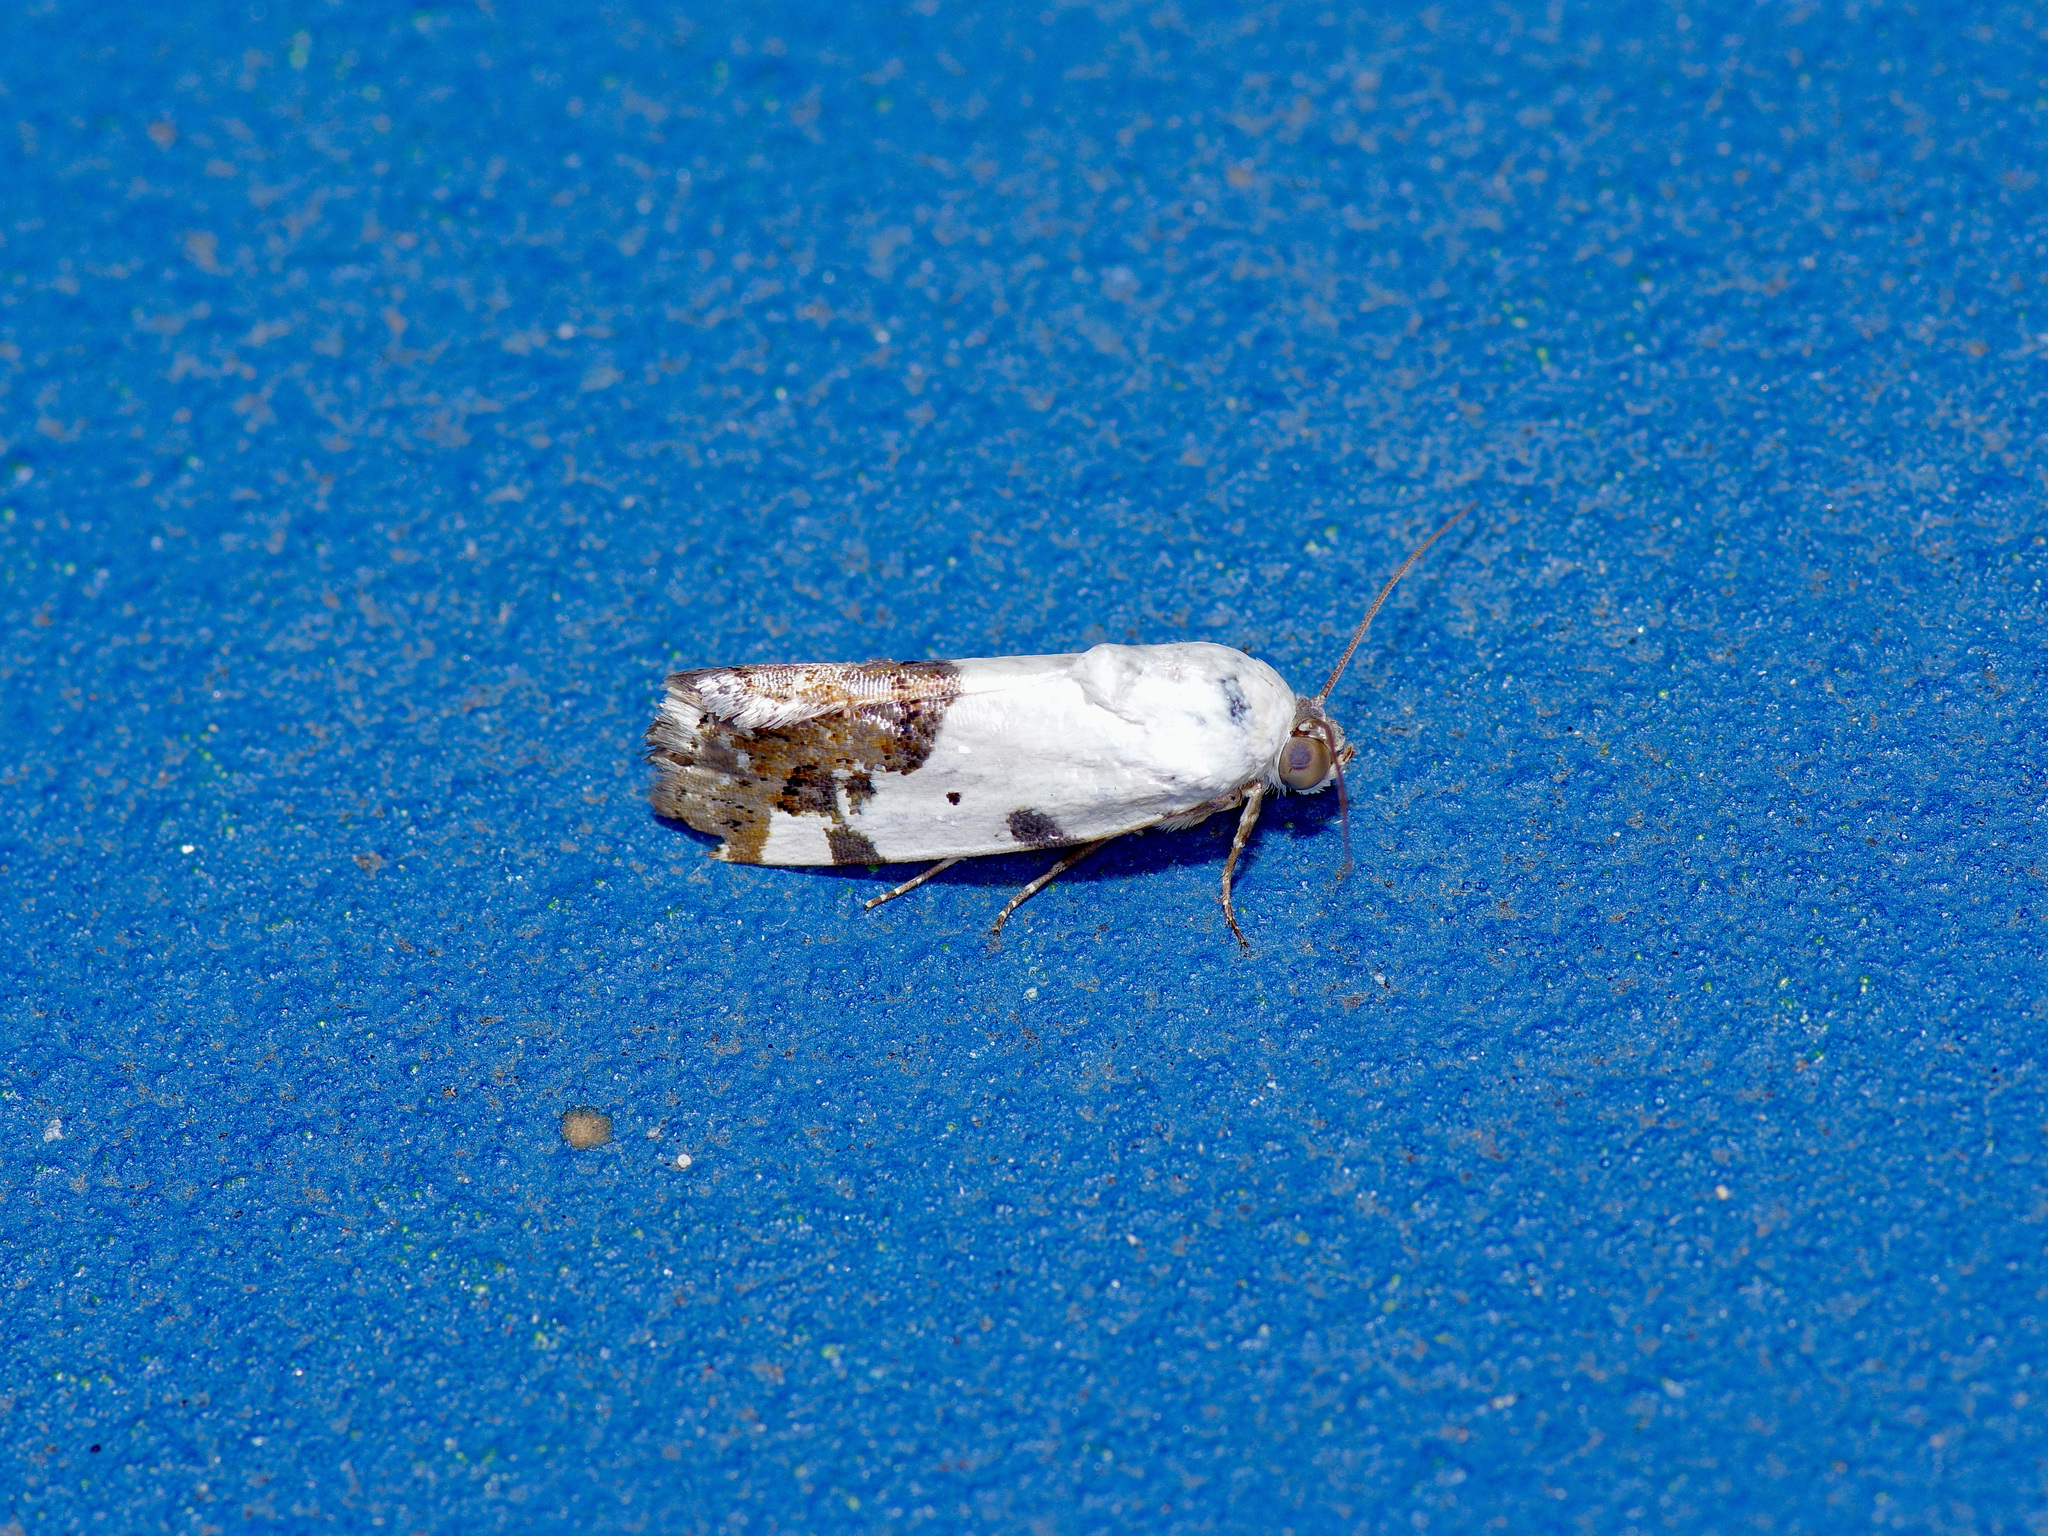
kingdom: Animalia
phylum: Arthropoda
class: Insecta
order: Lepidoptera
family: Noctuidae
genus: Acontia
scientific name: Acontia aprica
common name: Nun
